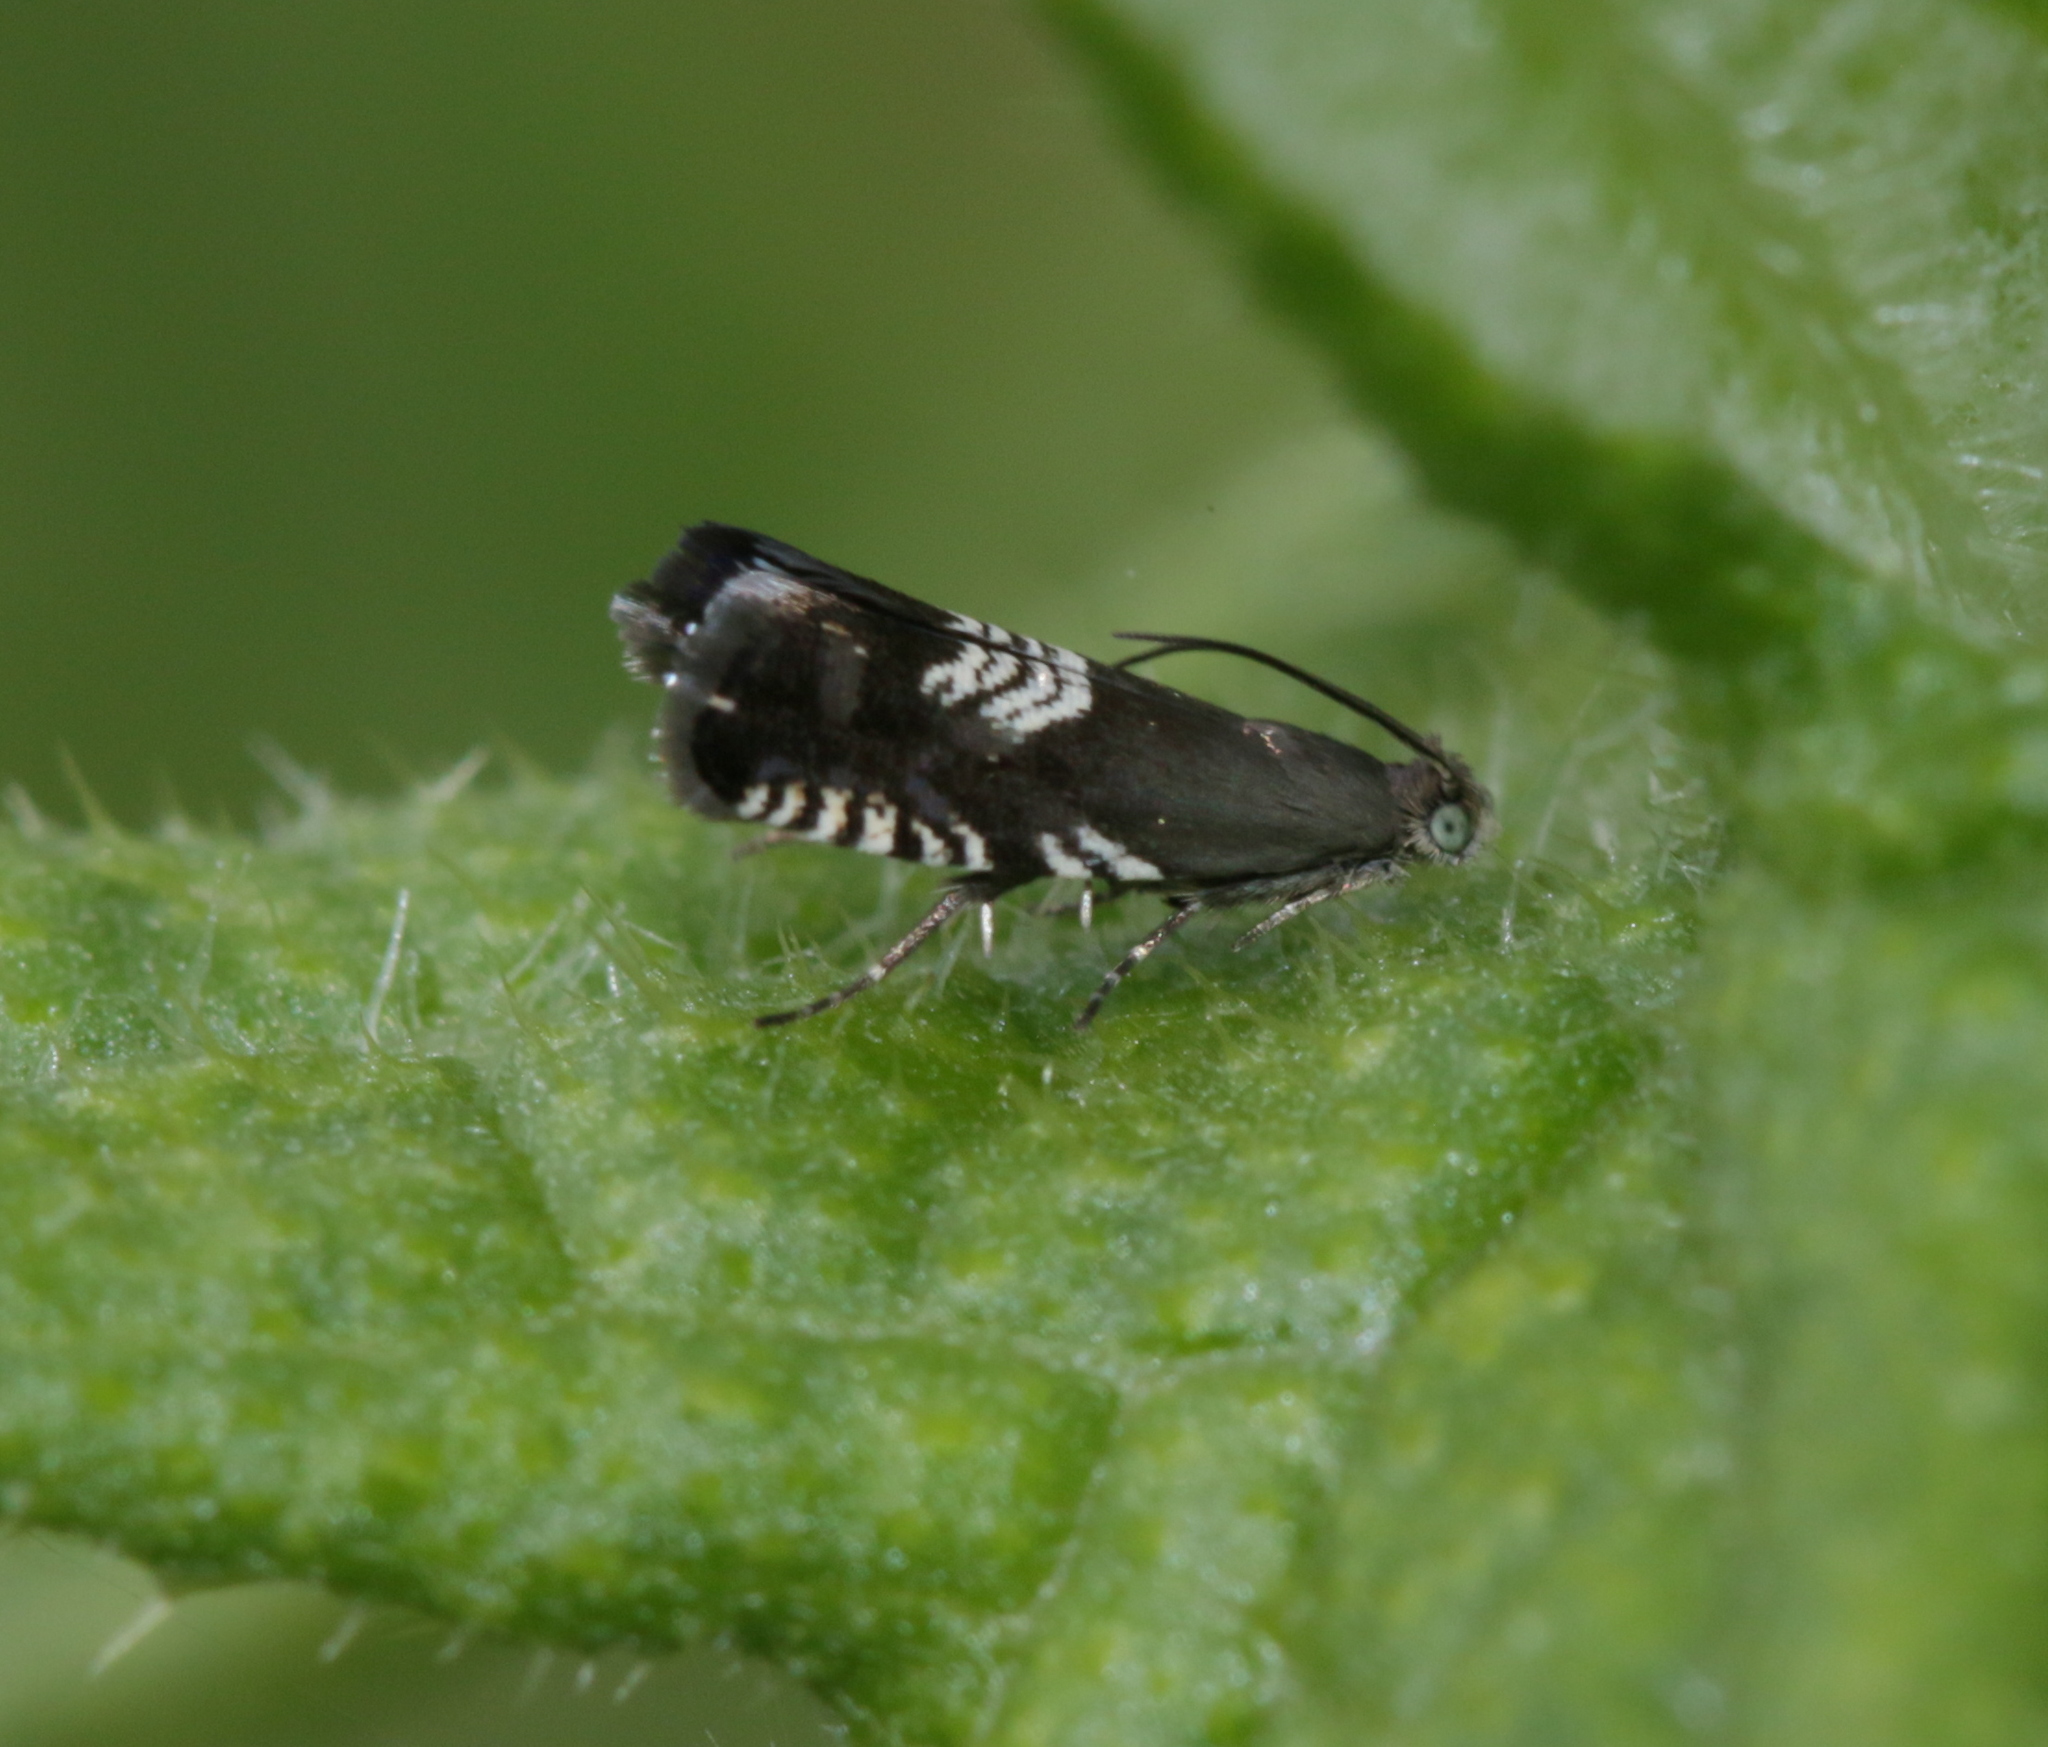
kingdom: Animalia
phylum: Arthropoda
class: Insecta
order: Lepidoptera
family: Tortricidae
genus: Grapholita
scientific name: Grapholita compositella
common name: Triple-stripe piercer
